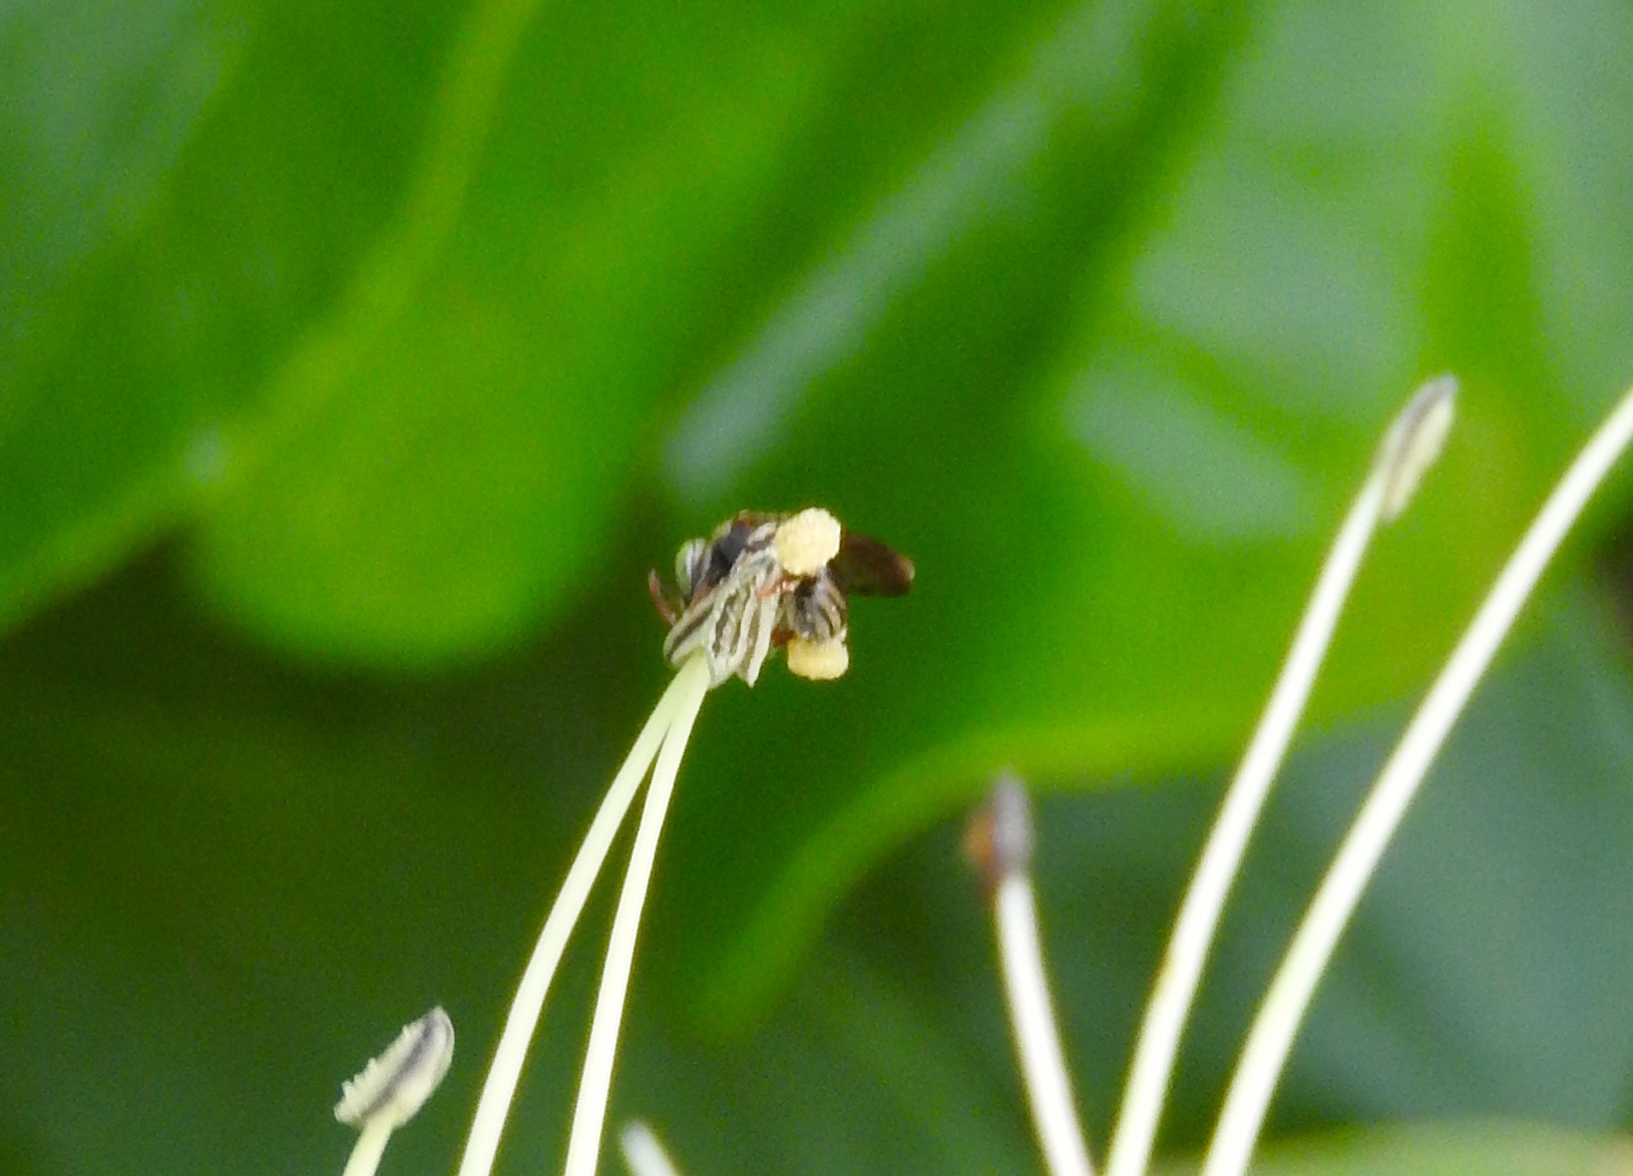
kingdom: Animalia
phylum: Arthropoda
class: Insecta
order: Hymenoptera
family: Apidae
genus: Nannotrigona
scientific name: Nannotrigona perilampoides
